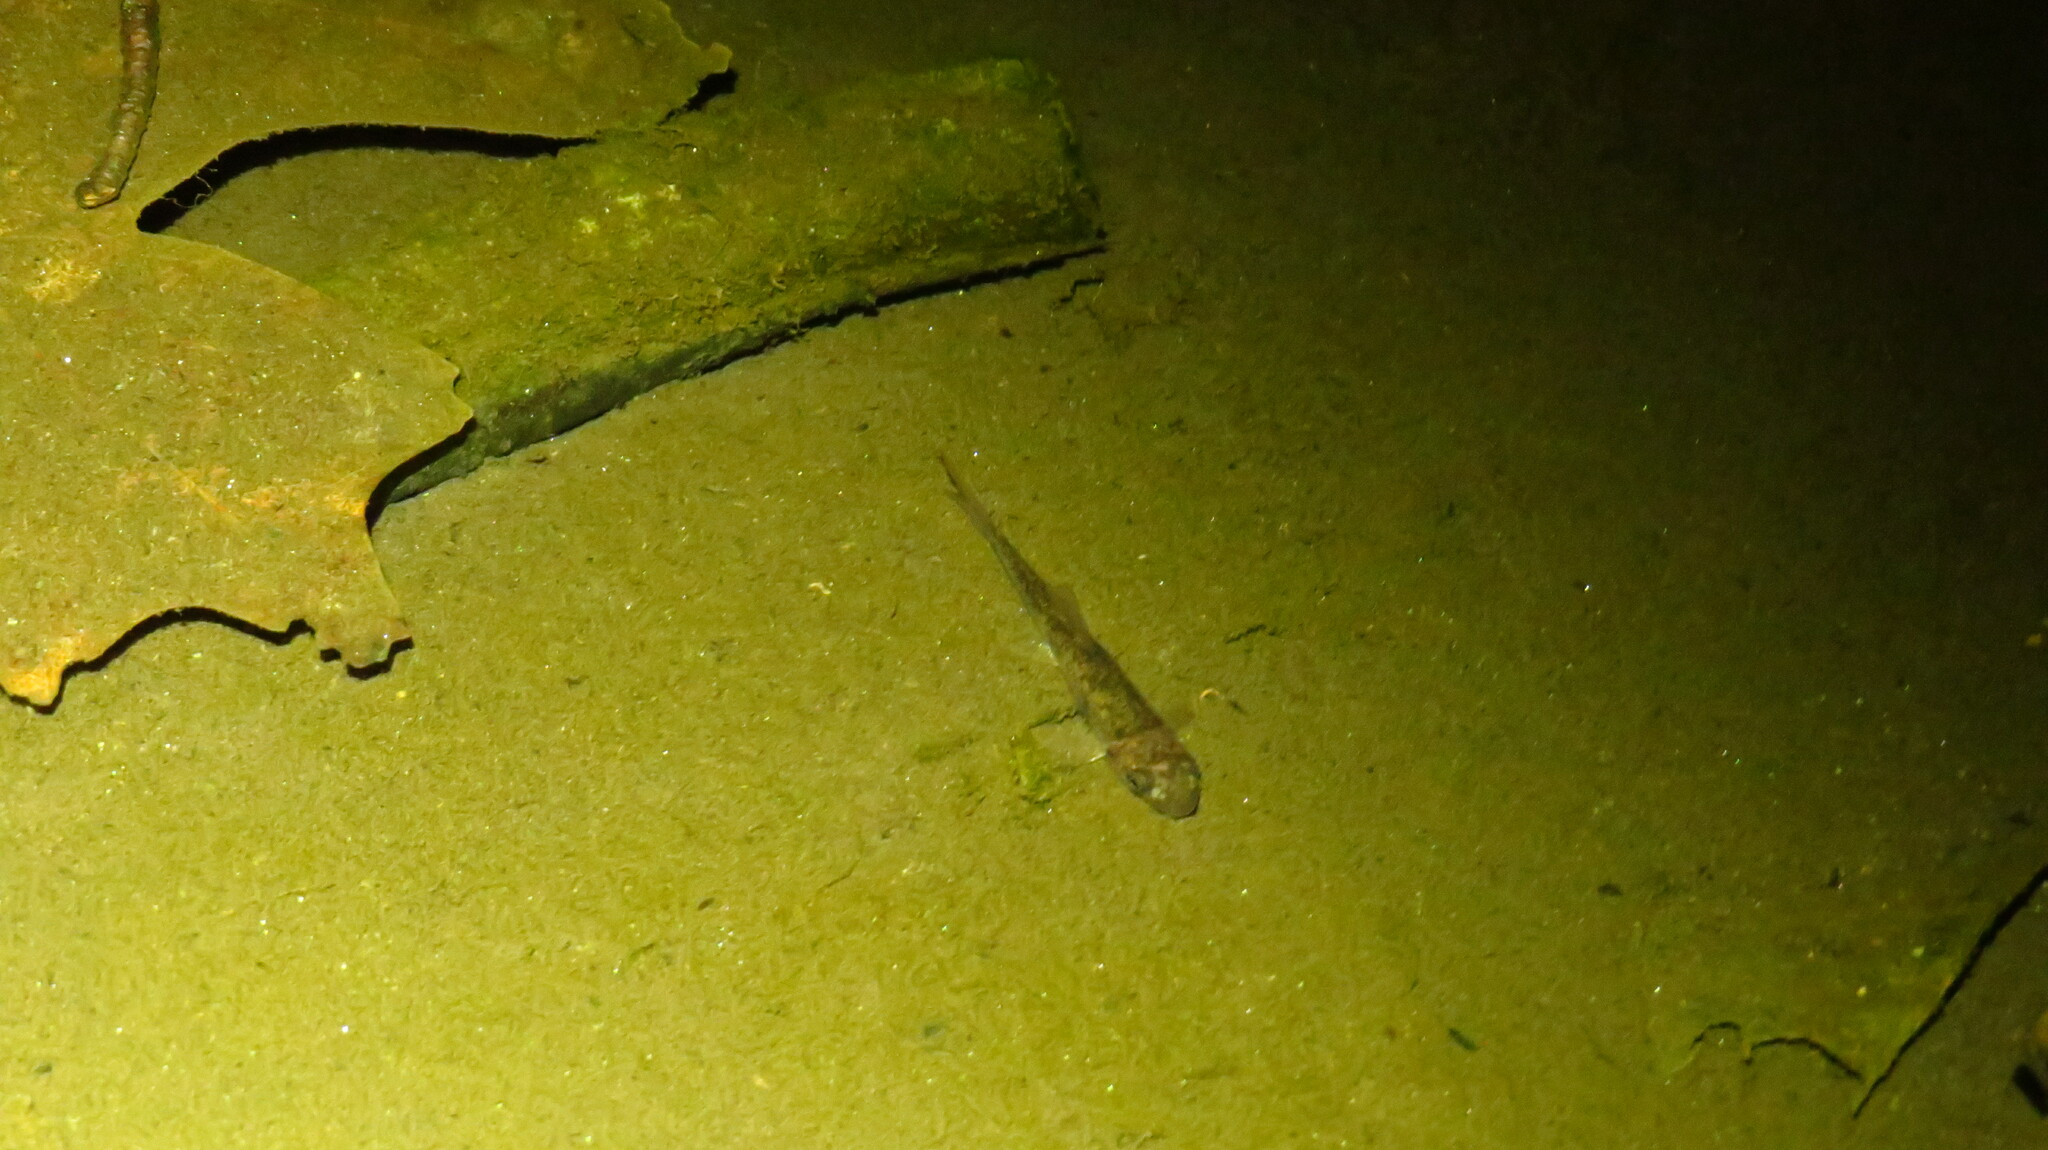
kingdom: Animalia
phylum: Chordata
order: Cypriniformes
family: Catostomidae
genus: Catostomus
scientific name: Catostomus commersonii
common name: White sucker
